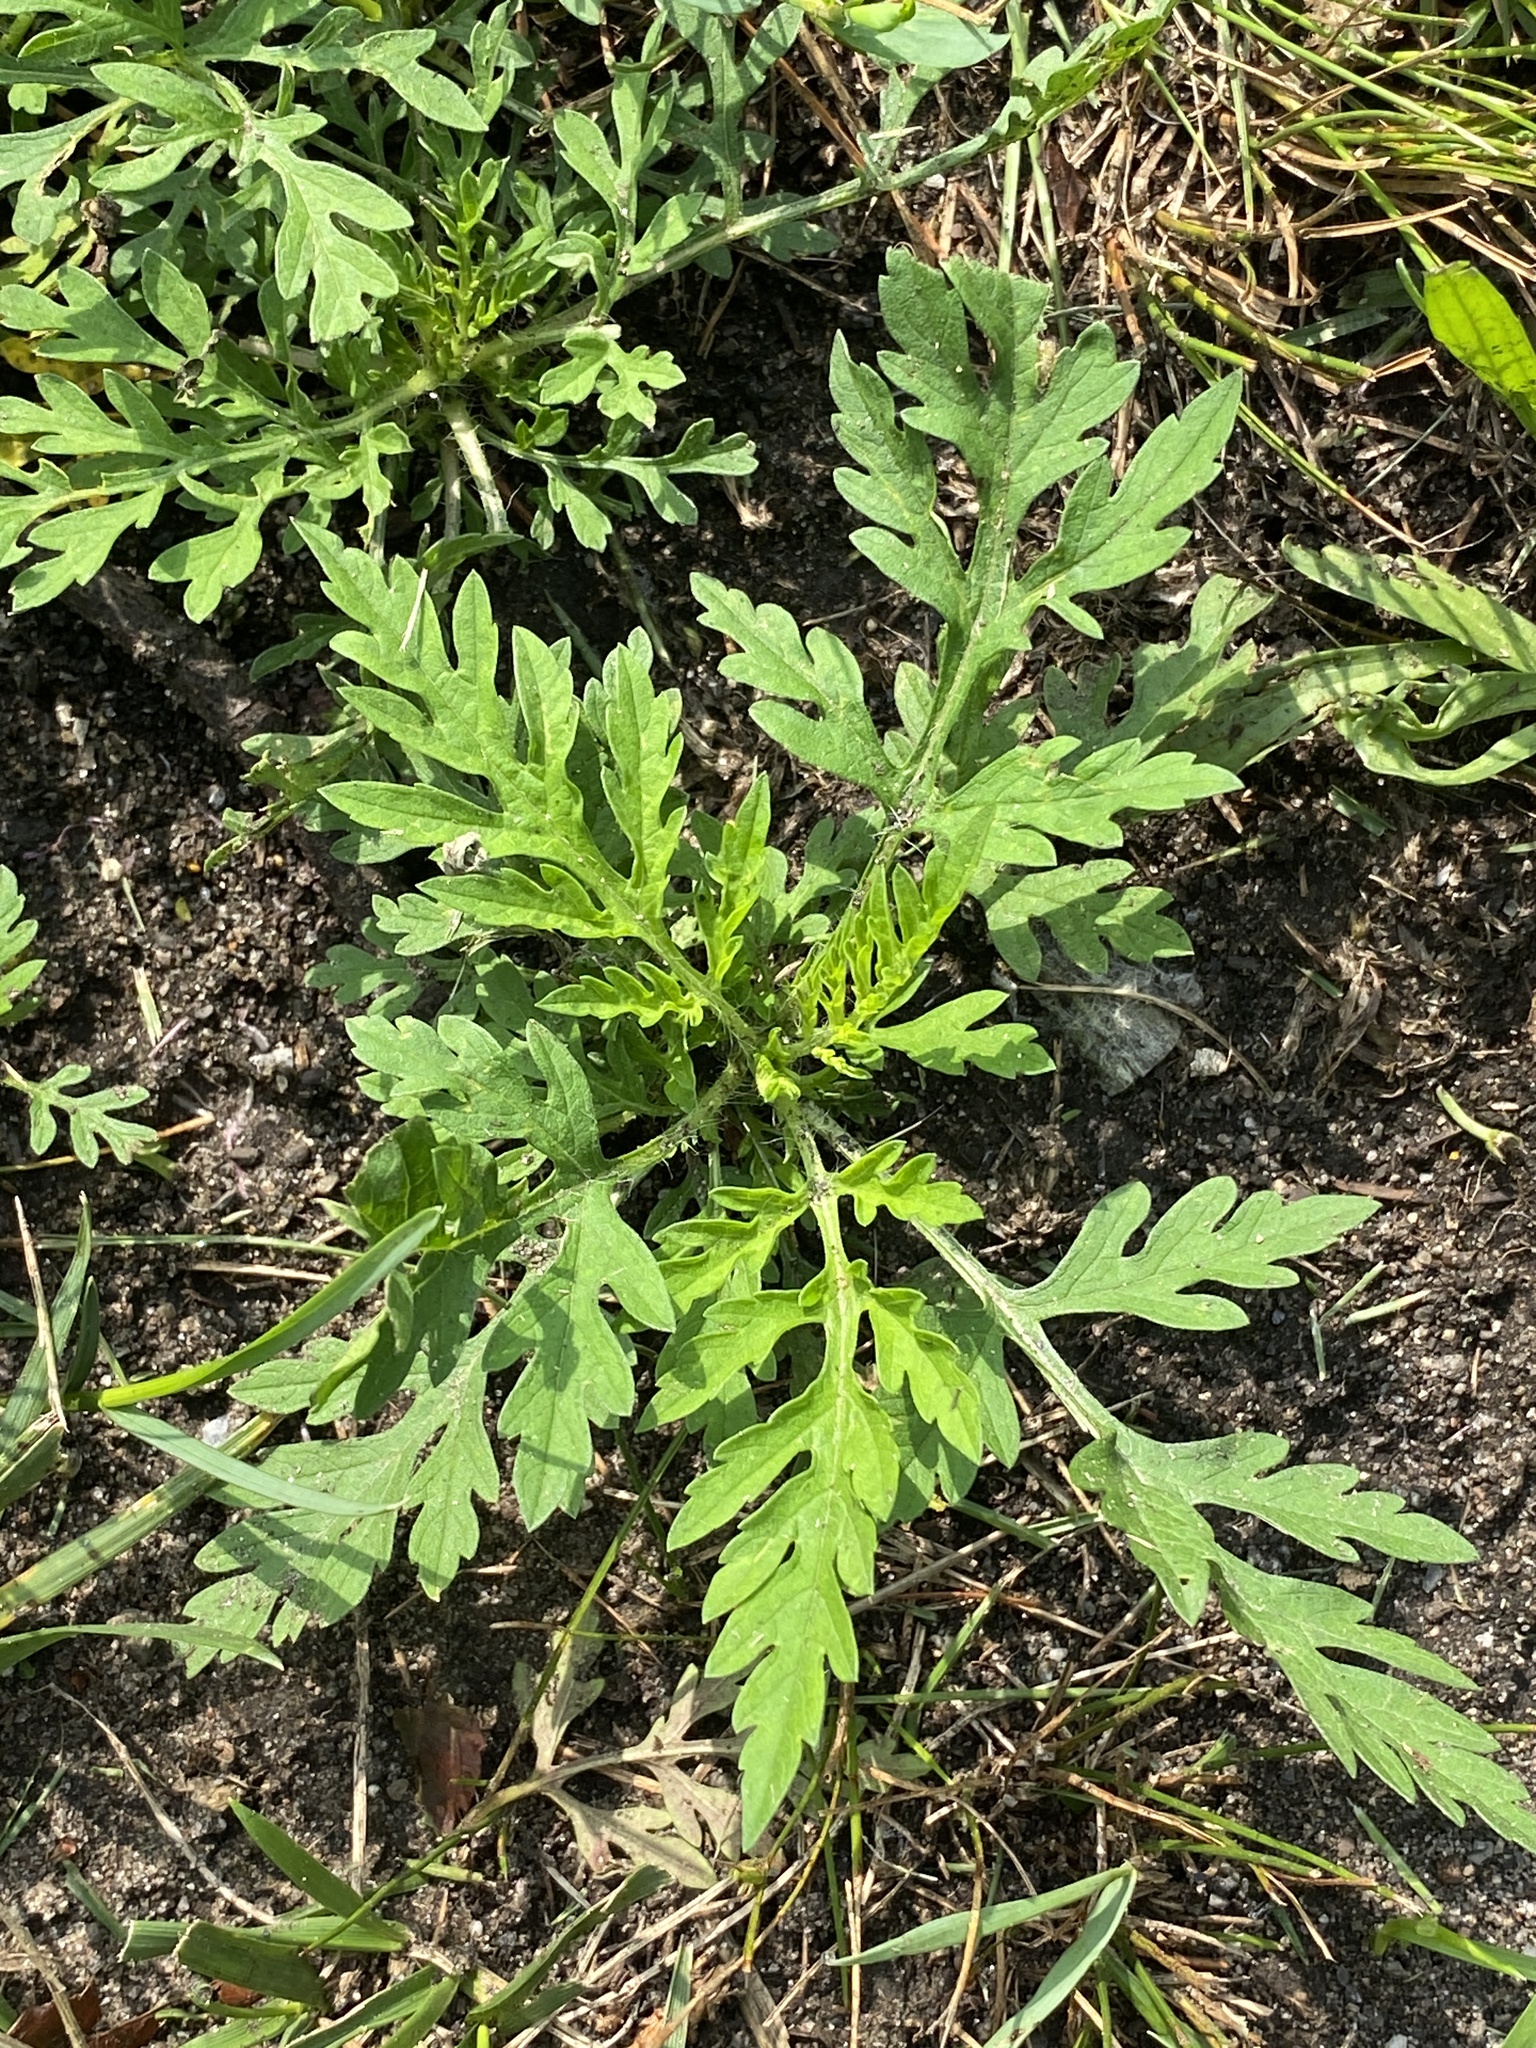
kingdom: Plantae
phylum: Tracheophyta
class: Magnoliopsida
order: Asterales
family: Asteraceae
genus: Ambrosia
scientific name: Ambrosia artemisiifolia
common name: Annual ragweed
